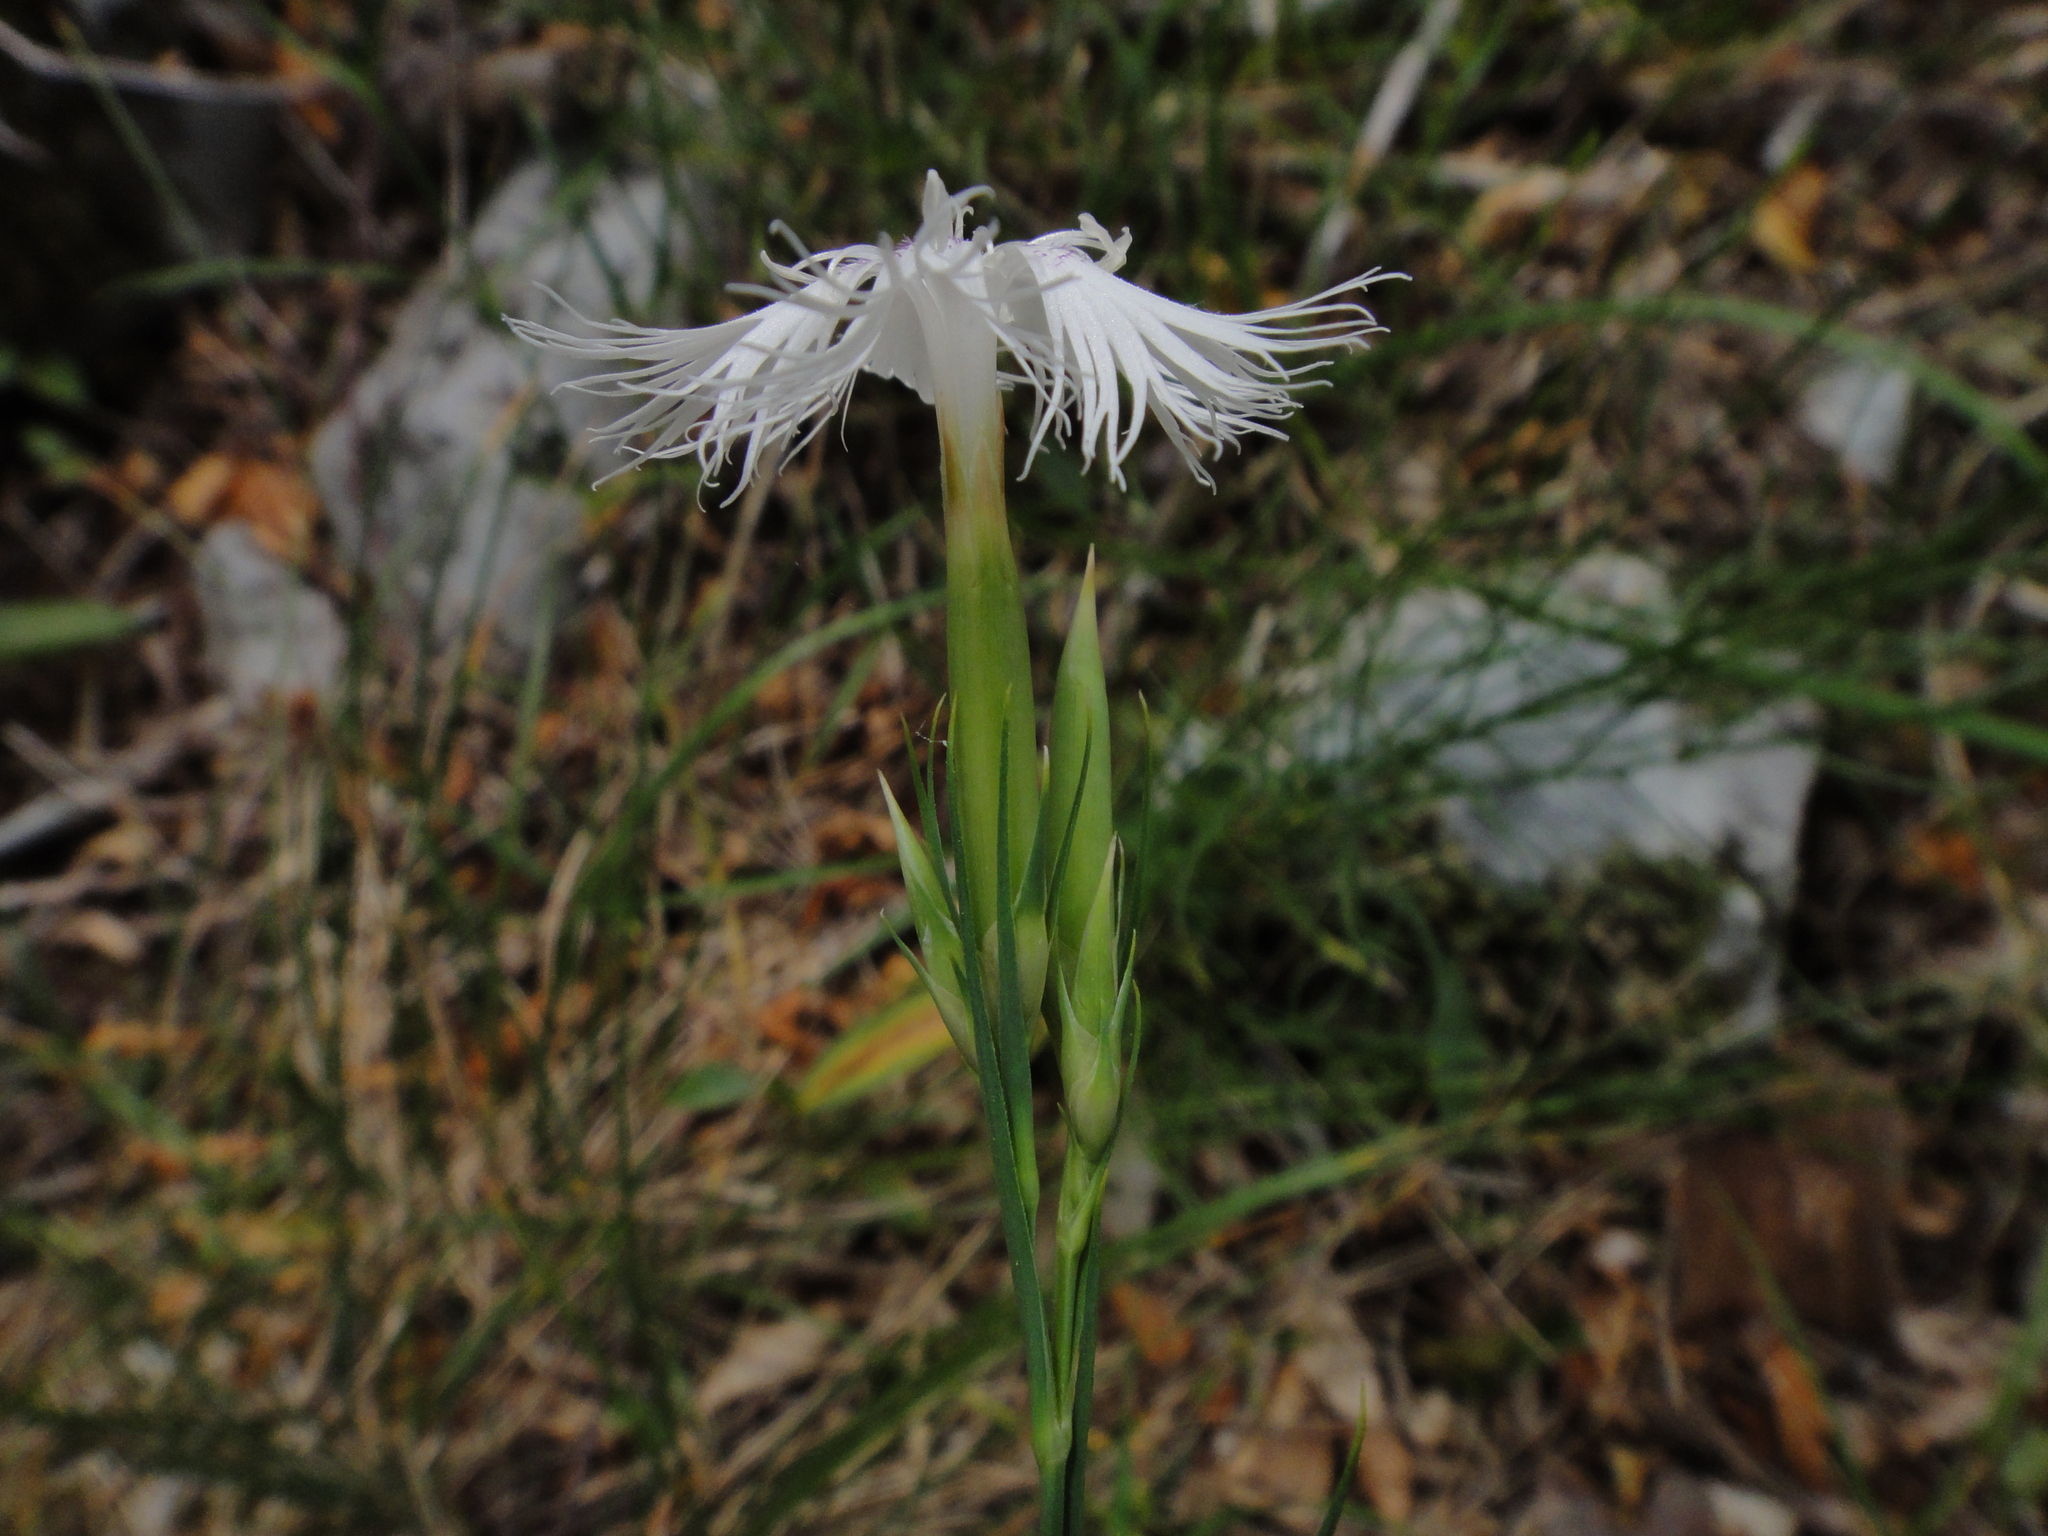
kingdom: Plantae
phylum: Tracheophyta
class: Magnoliopsida
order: Caryophyllales
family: Caryophyllaceae
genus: Dianthus
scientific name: Dianthus monspessulanus
